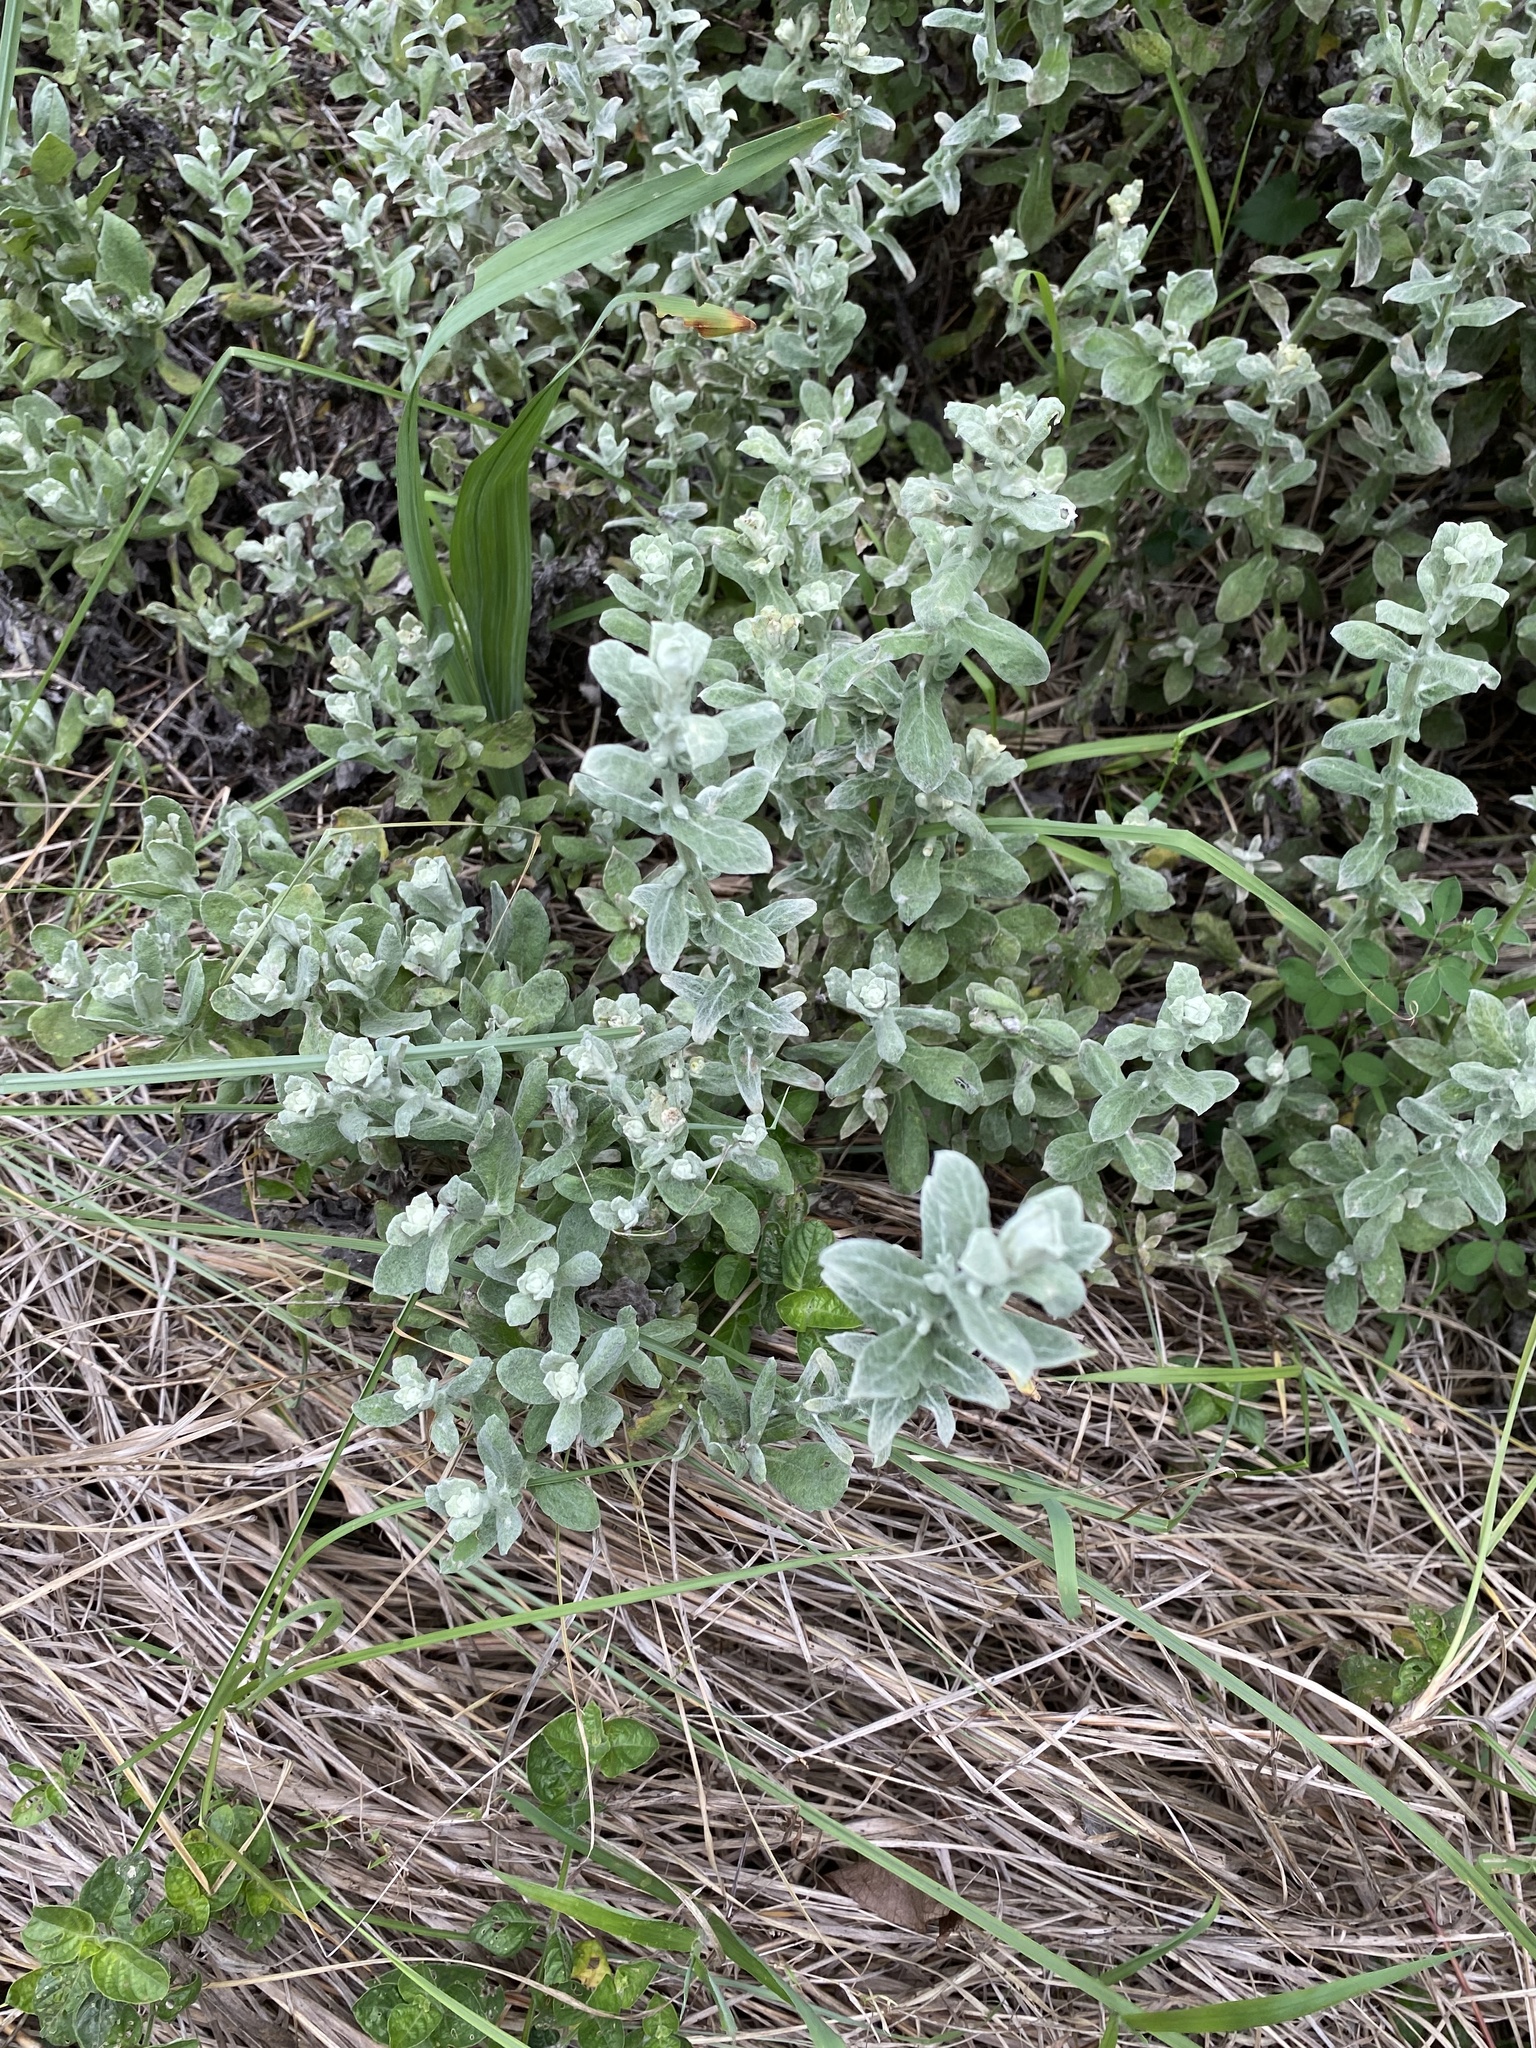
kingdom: Plantae
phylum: Tracheophyta
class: Magnoliopsida
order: Asterales
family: Asteraceae
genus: Helichrysum
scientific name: Helichrysum panduratum
